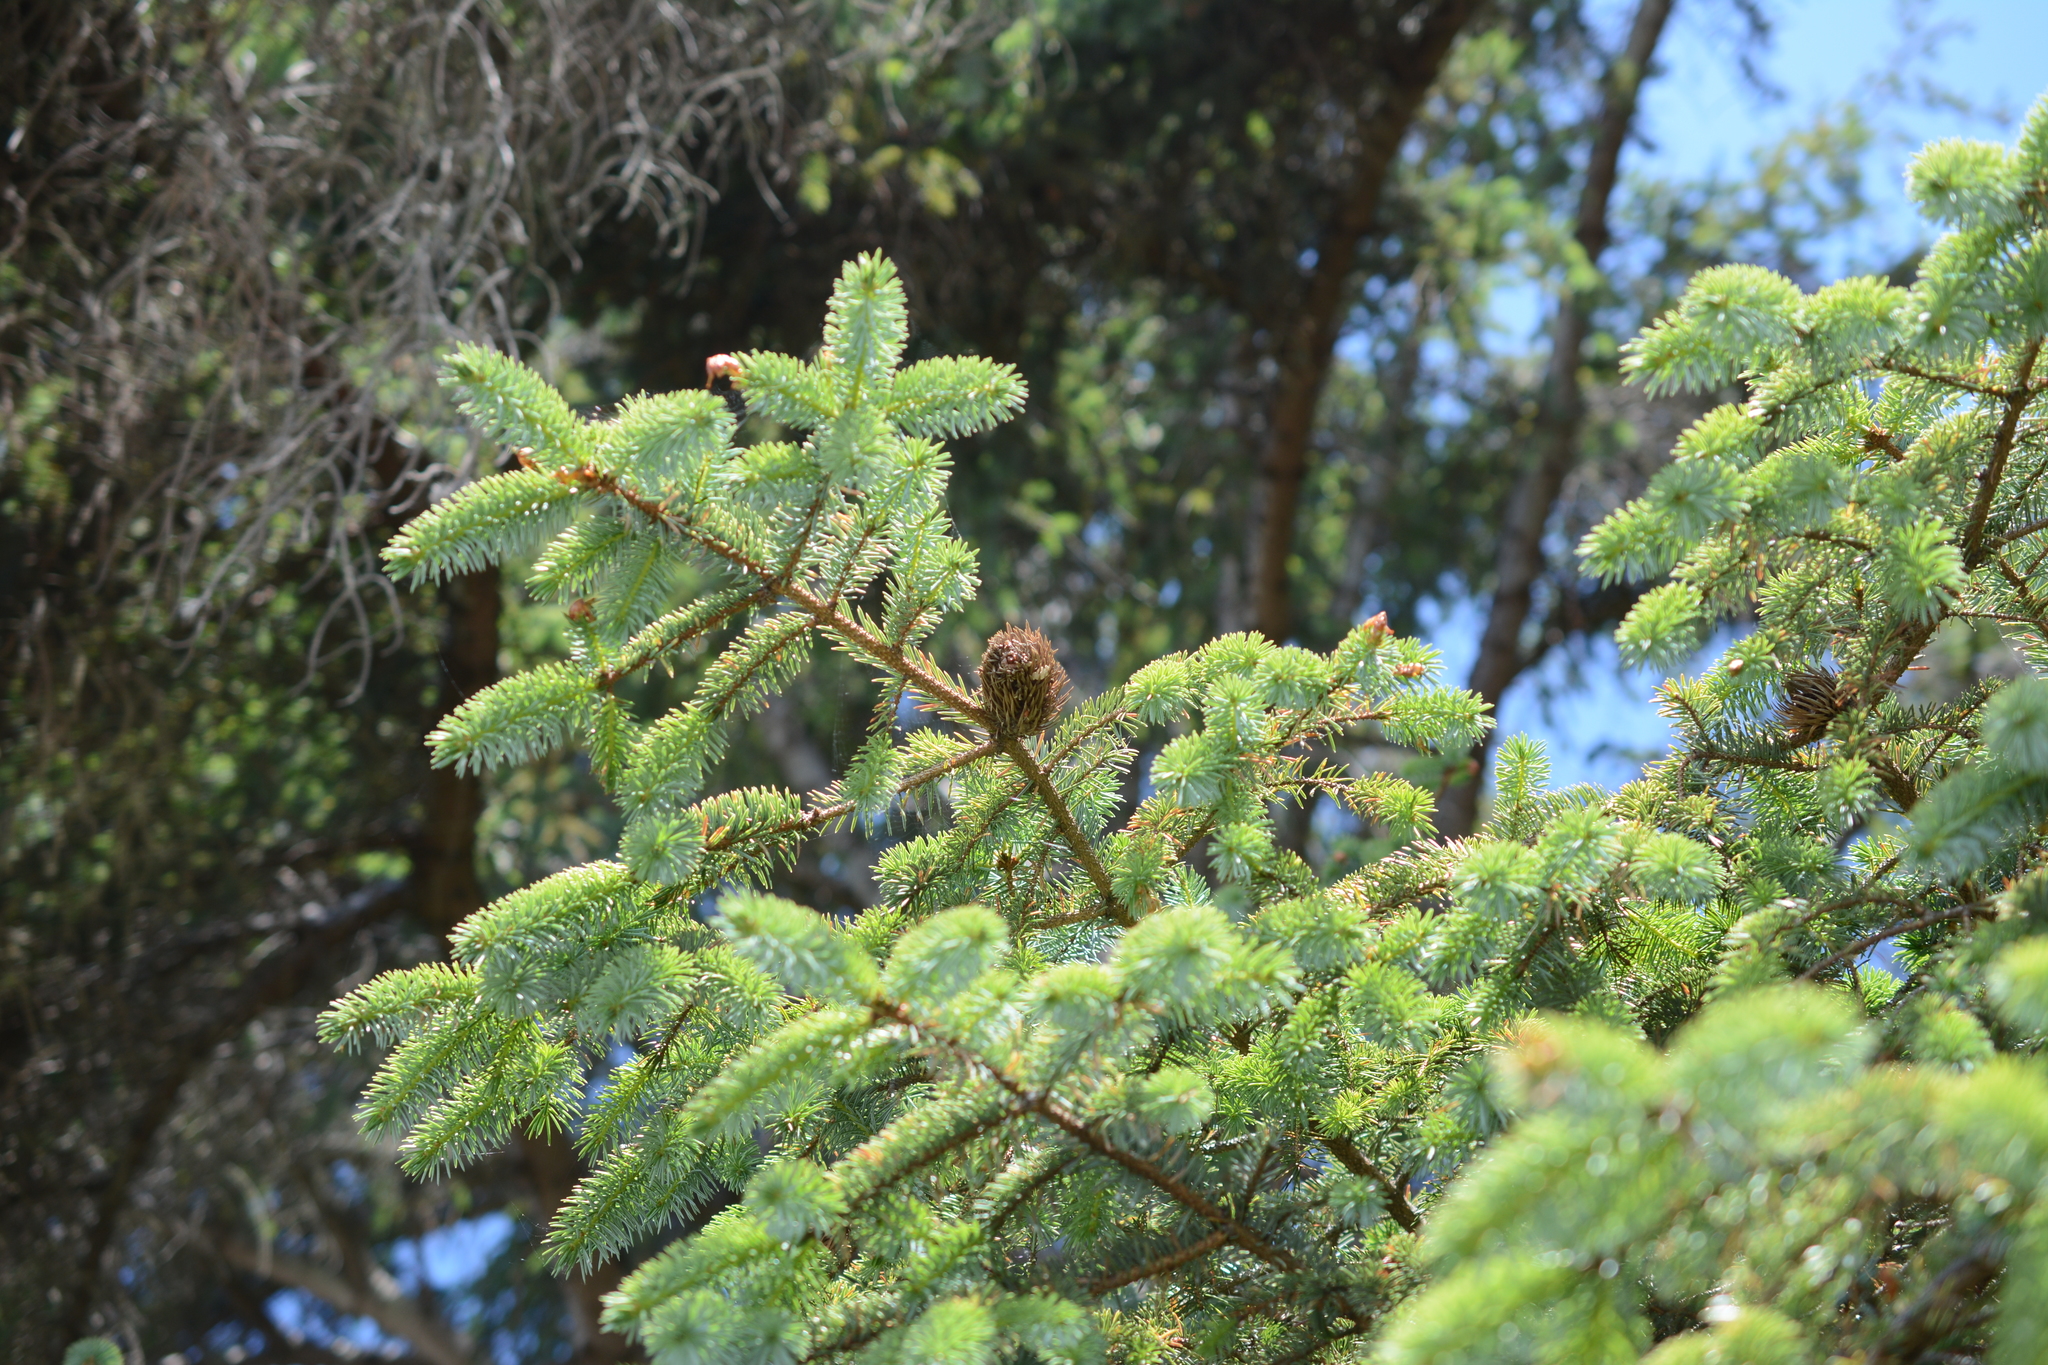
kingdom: Plantae
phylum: Tracheophyta
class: Pinopsida
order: Pinales
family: Pinaceae
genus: Picea
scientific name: Picea sitchensis
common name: Sitka spruce
